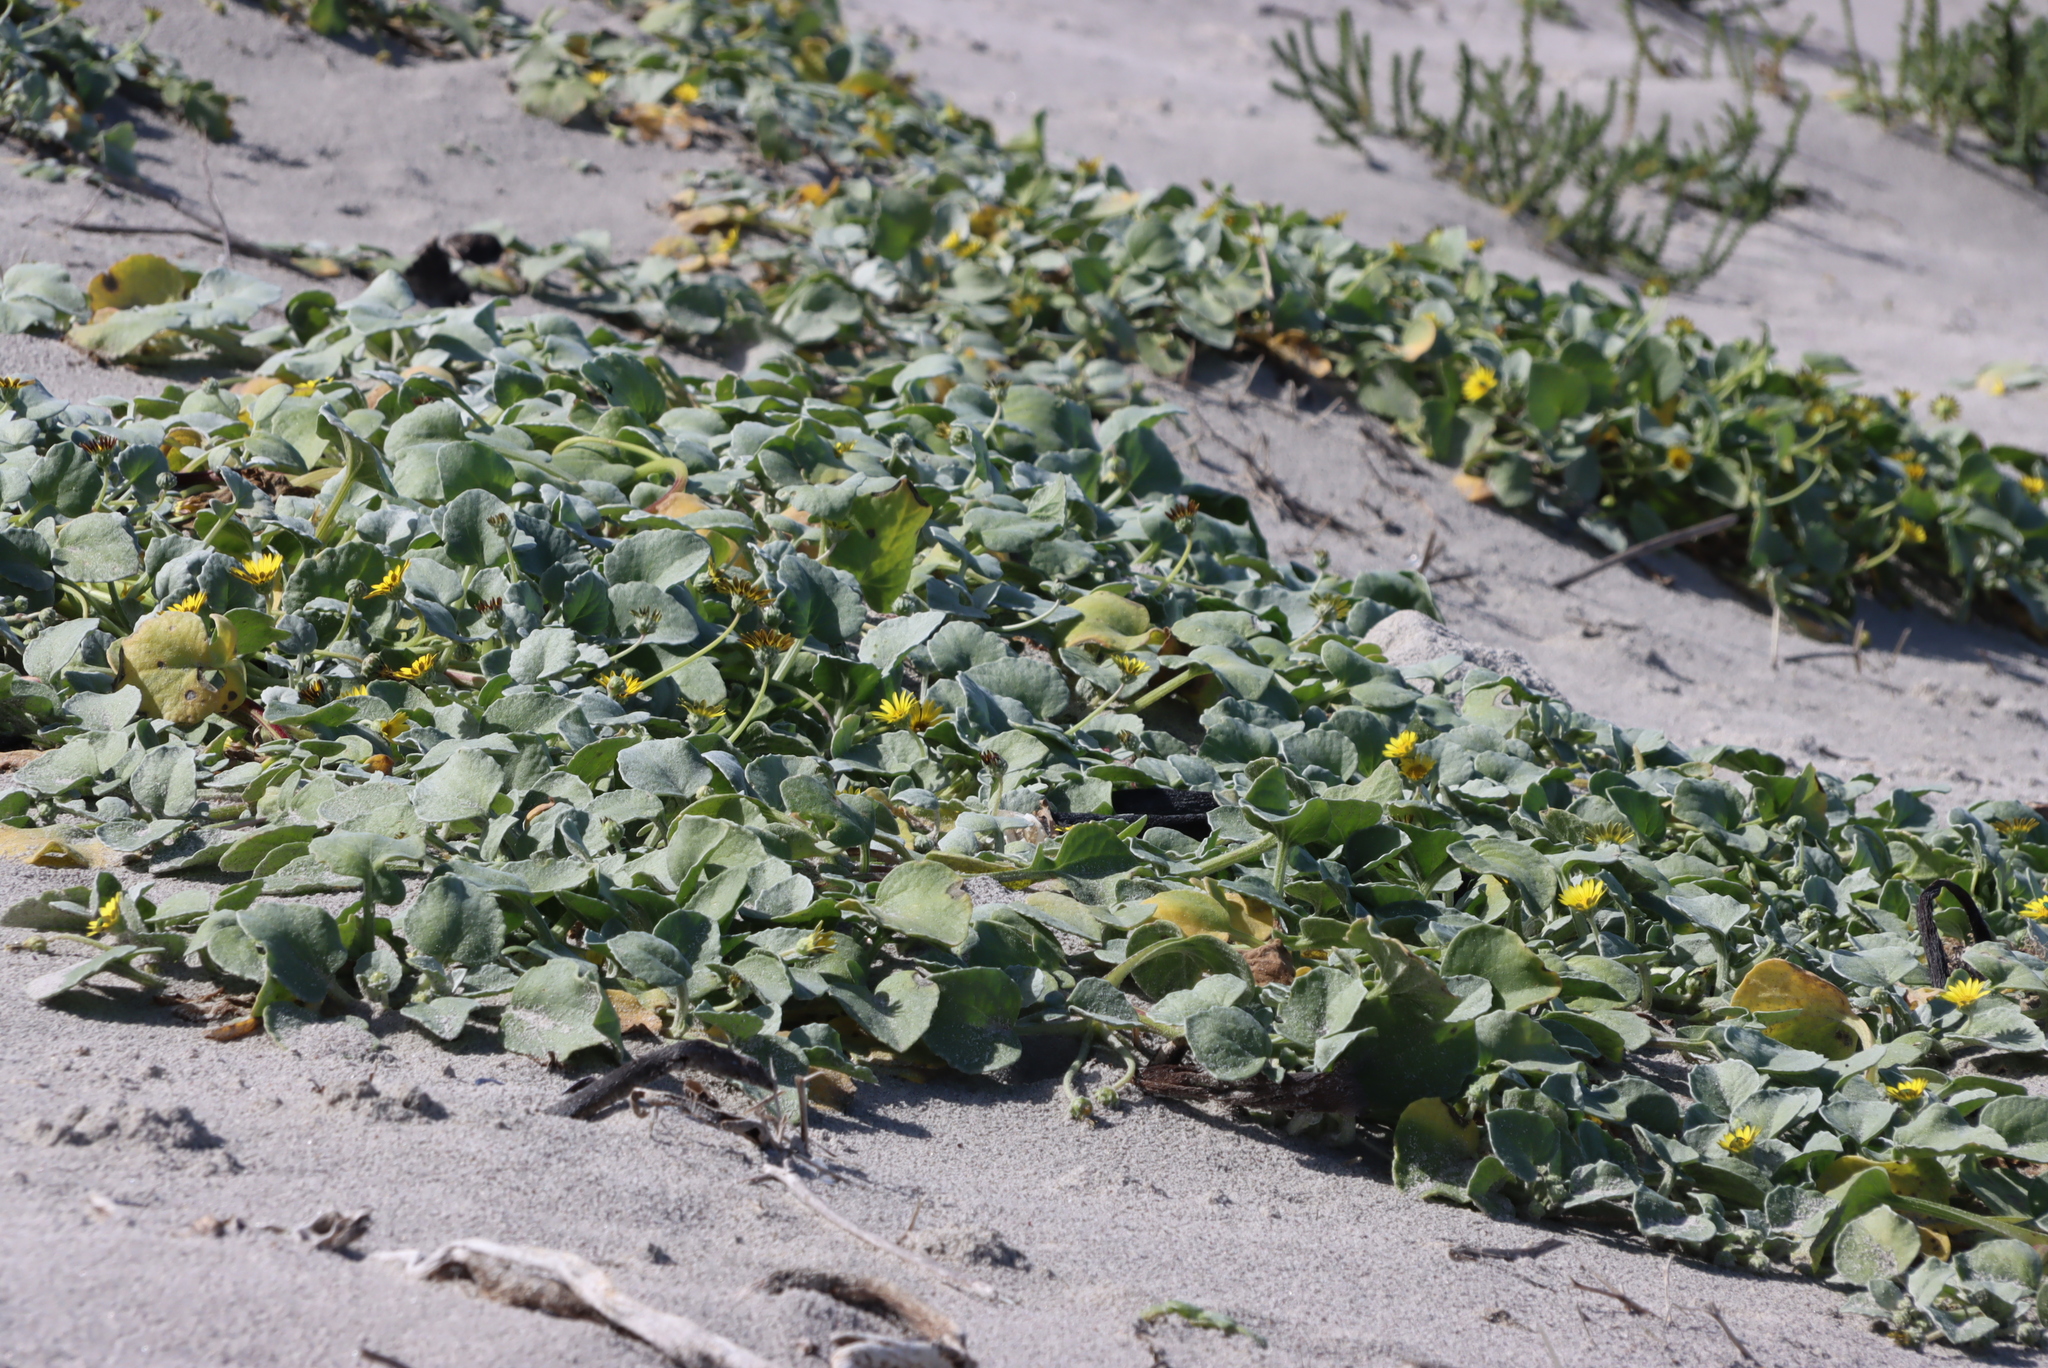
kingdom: Plantae
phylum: Tracheophyta
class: Magnoliopsida
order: Asterales
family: Asteraceae
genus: Arctotheca
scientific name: Arctotheca populifolia
